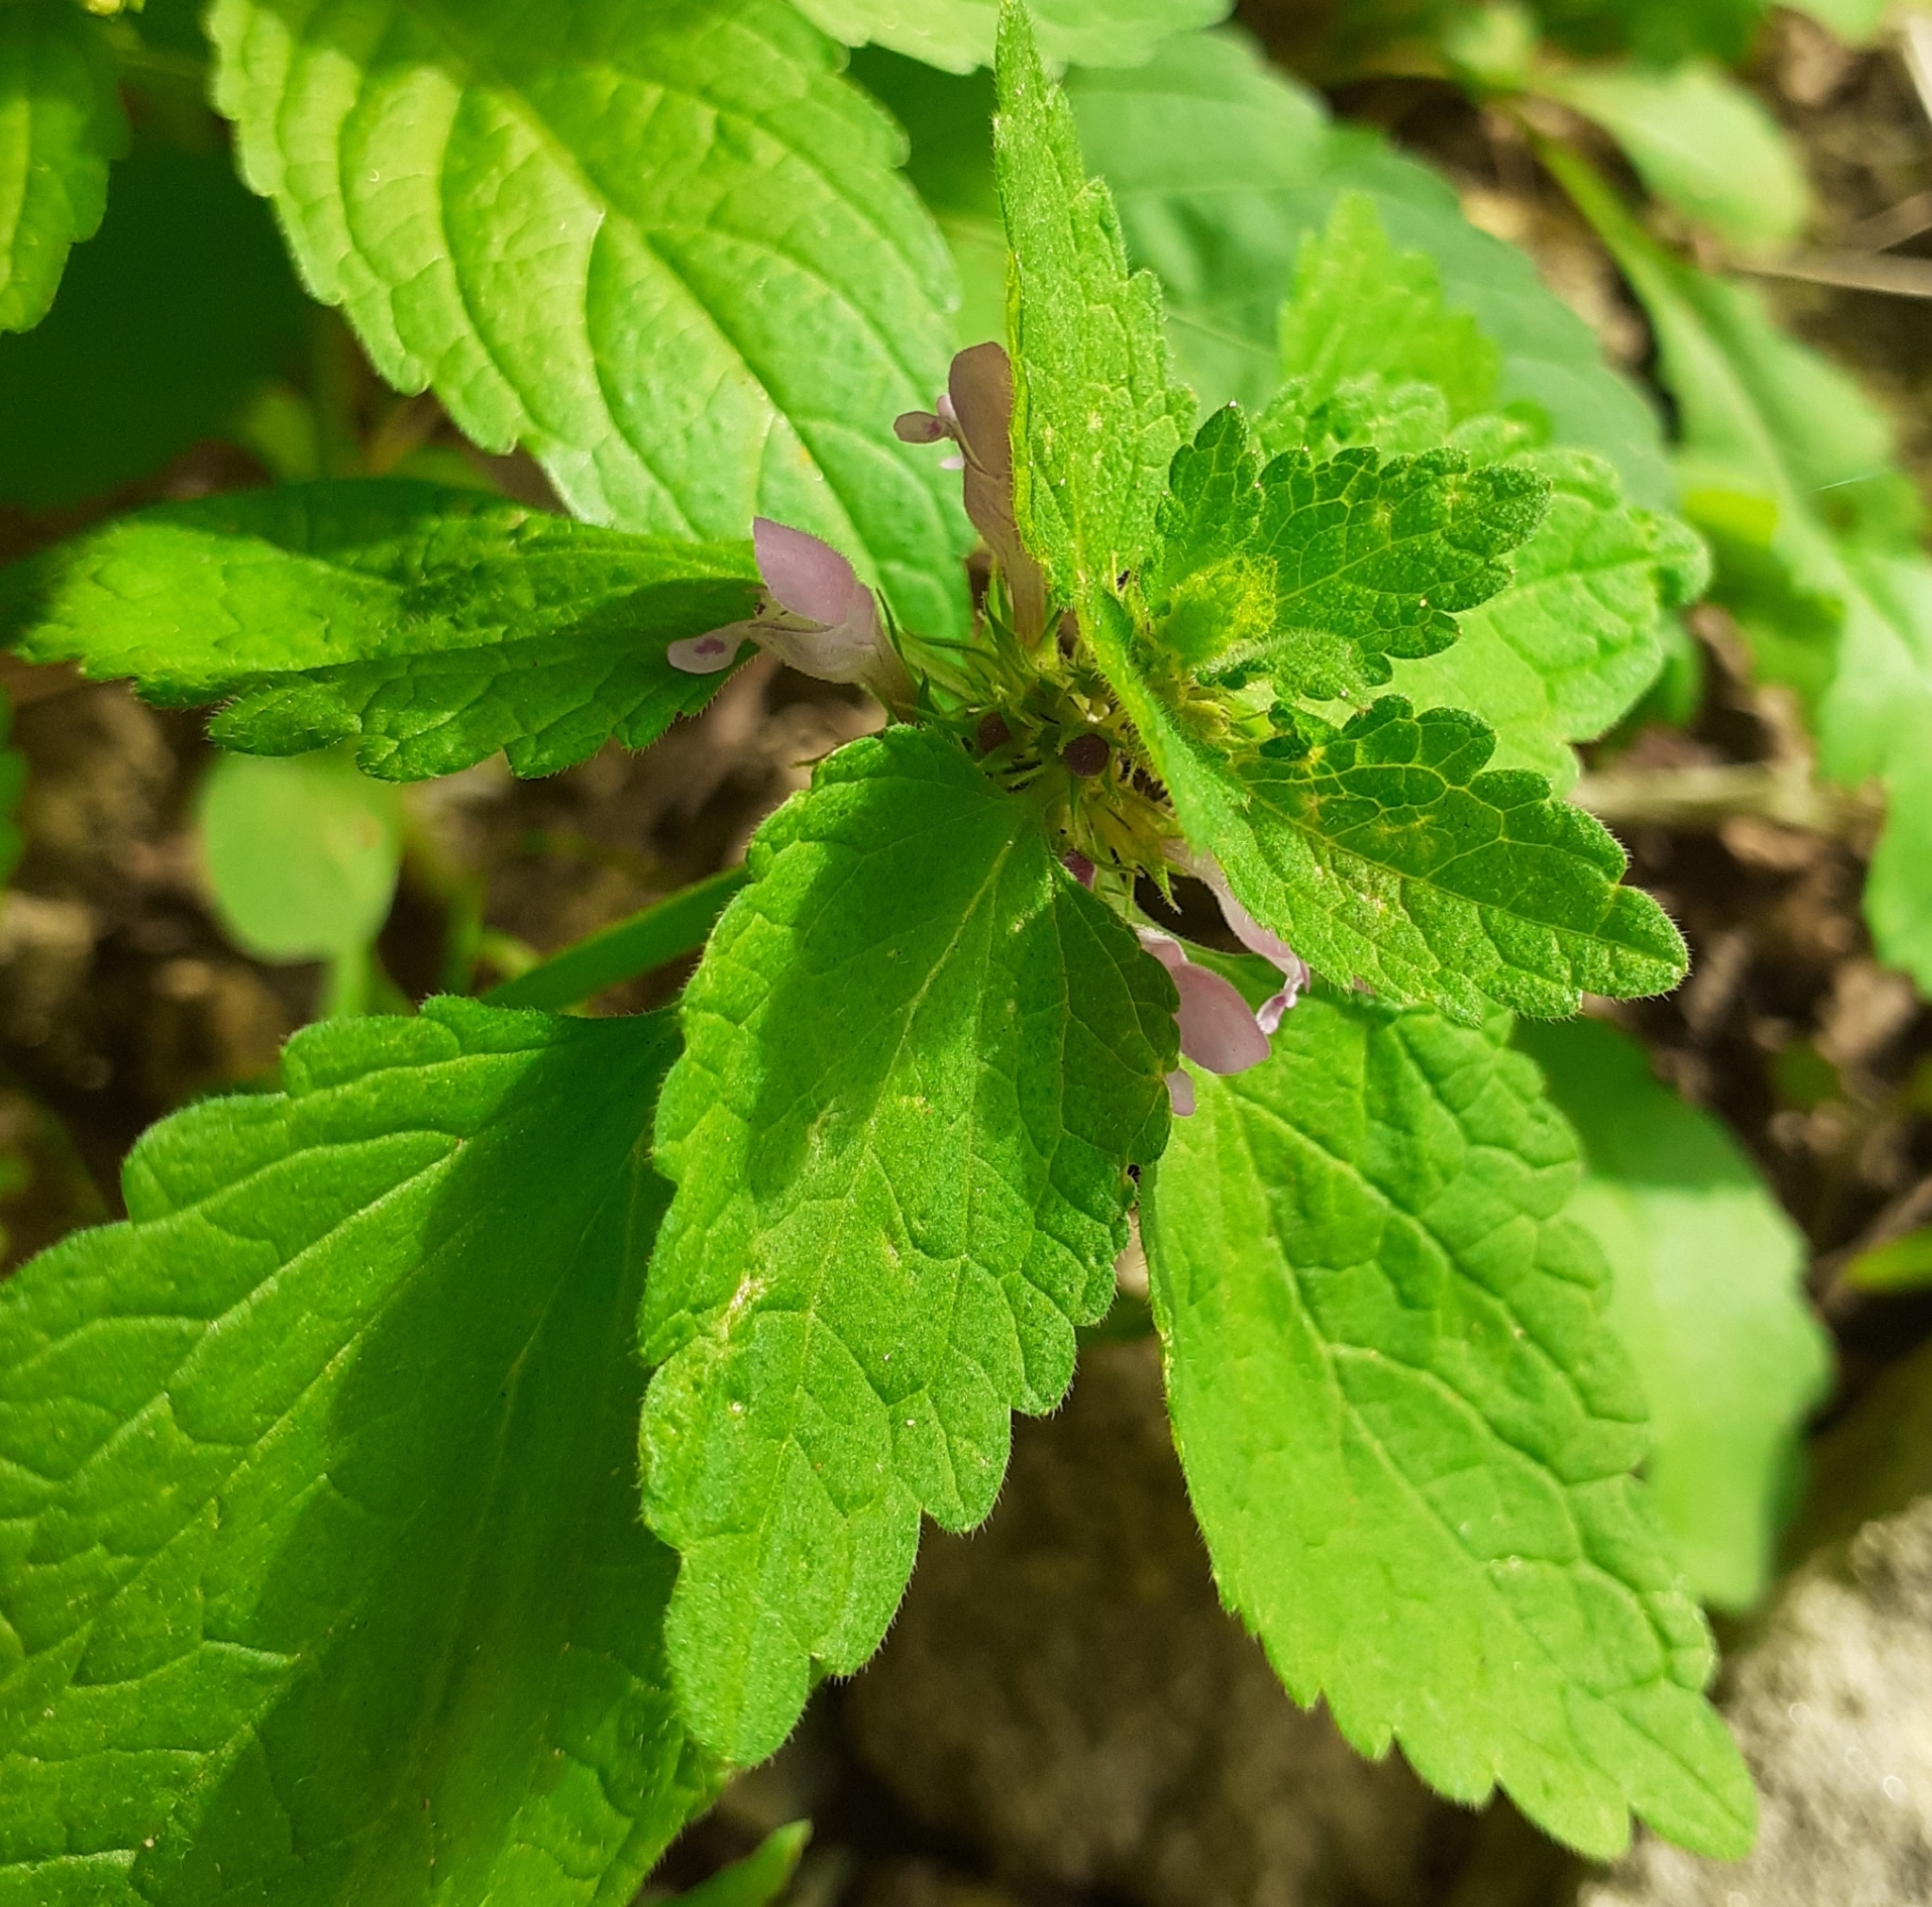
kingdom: Plantae
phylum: Tracheophyta
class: Magnoliopsida
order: Lamiales
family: Lamiaceae
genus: Lamium
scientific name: Lamium purpureum
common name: Red dead-nettle
